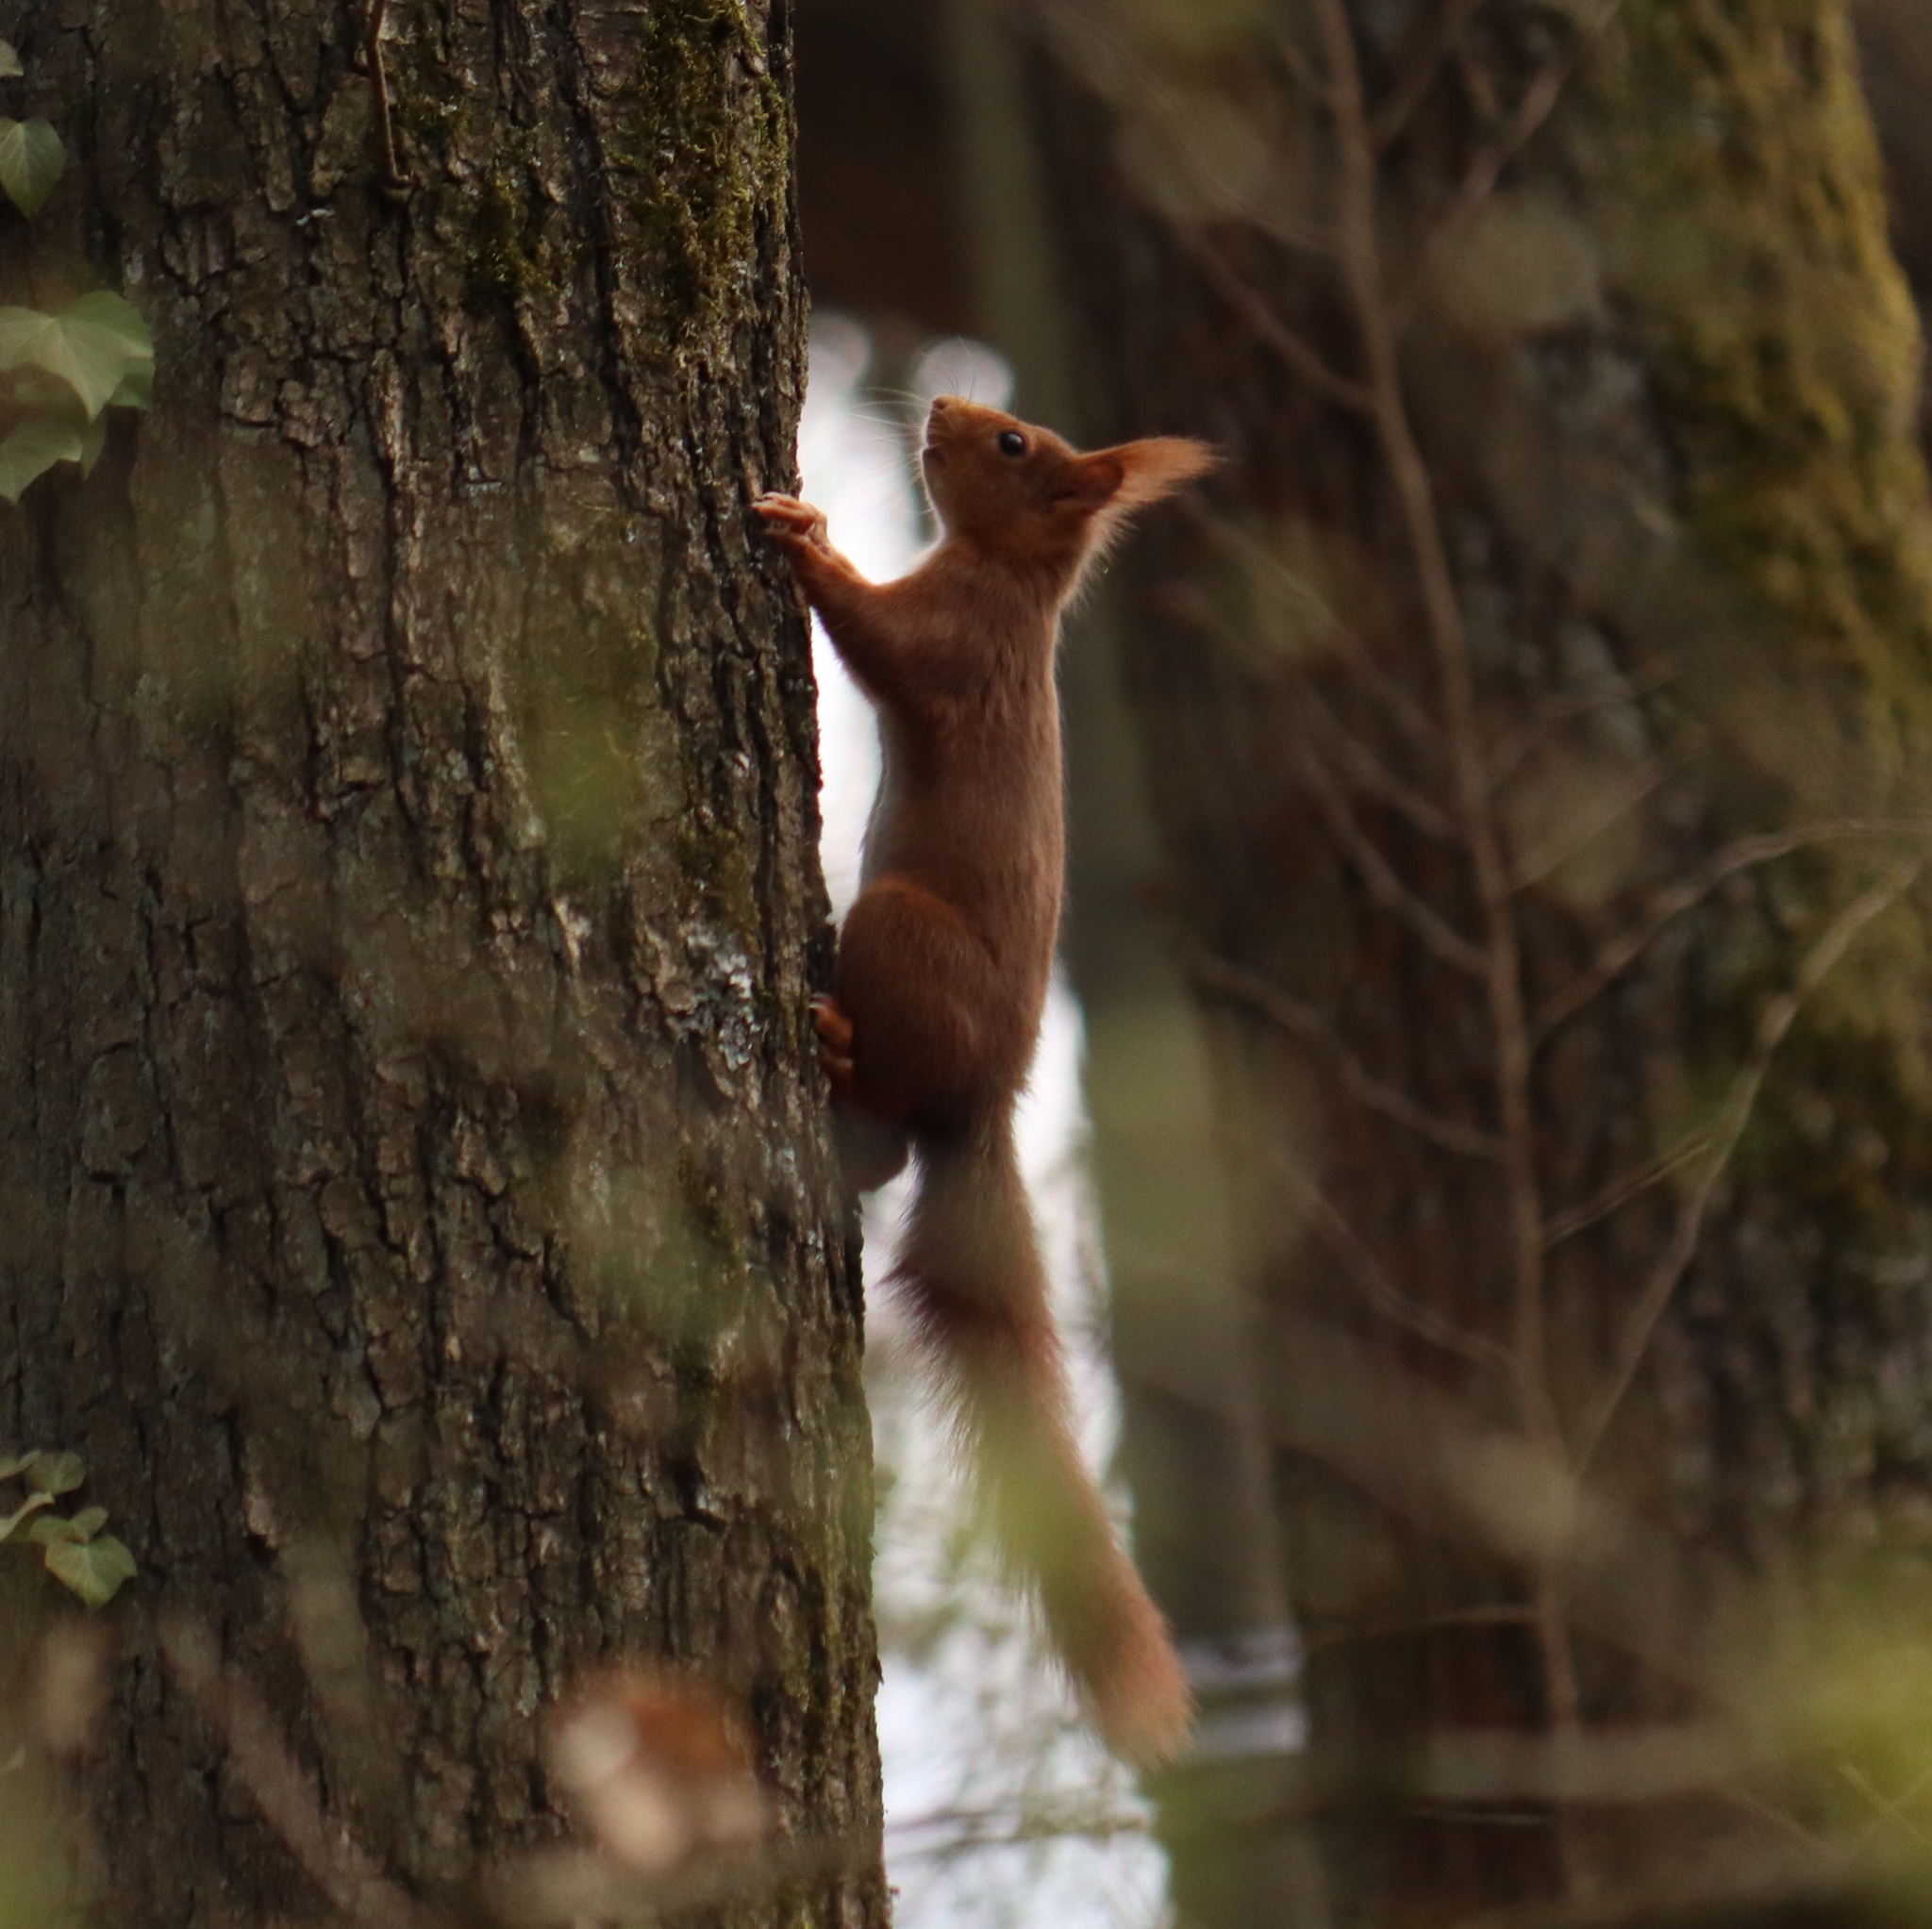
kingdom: Animalia
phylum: Chordata
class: Mammalia
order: Rodentia
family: Sciuridae
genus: Sciurus
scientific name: Sciurus vulgaris
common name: Eurasian red squirrel
